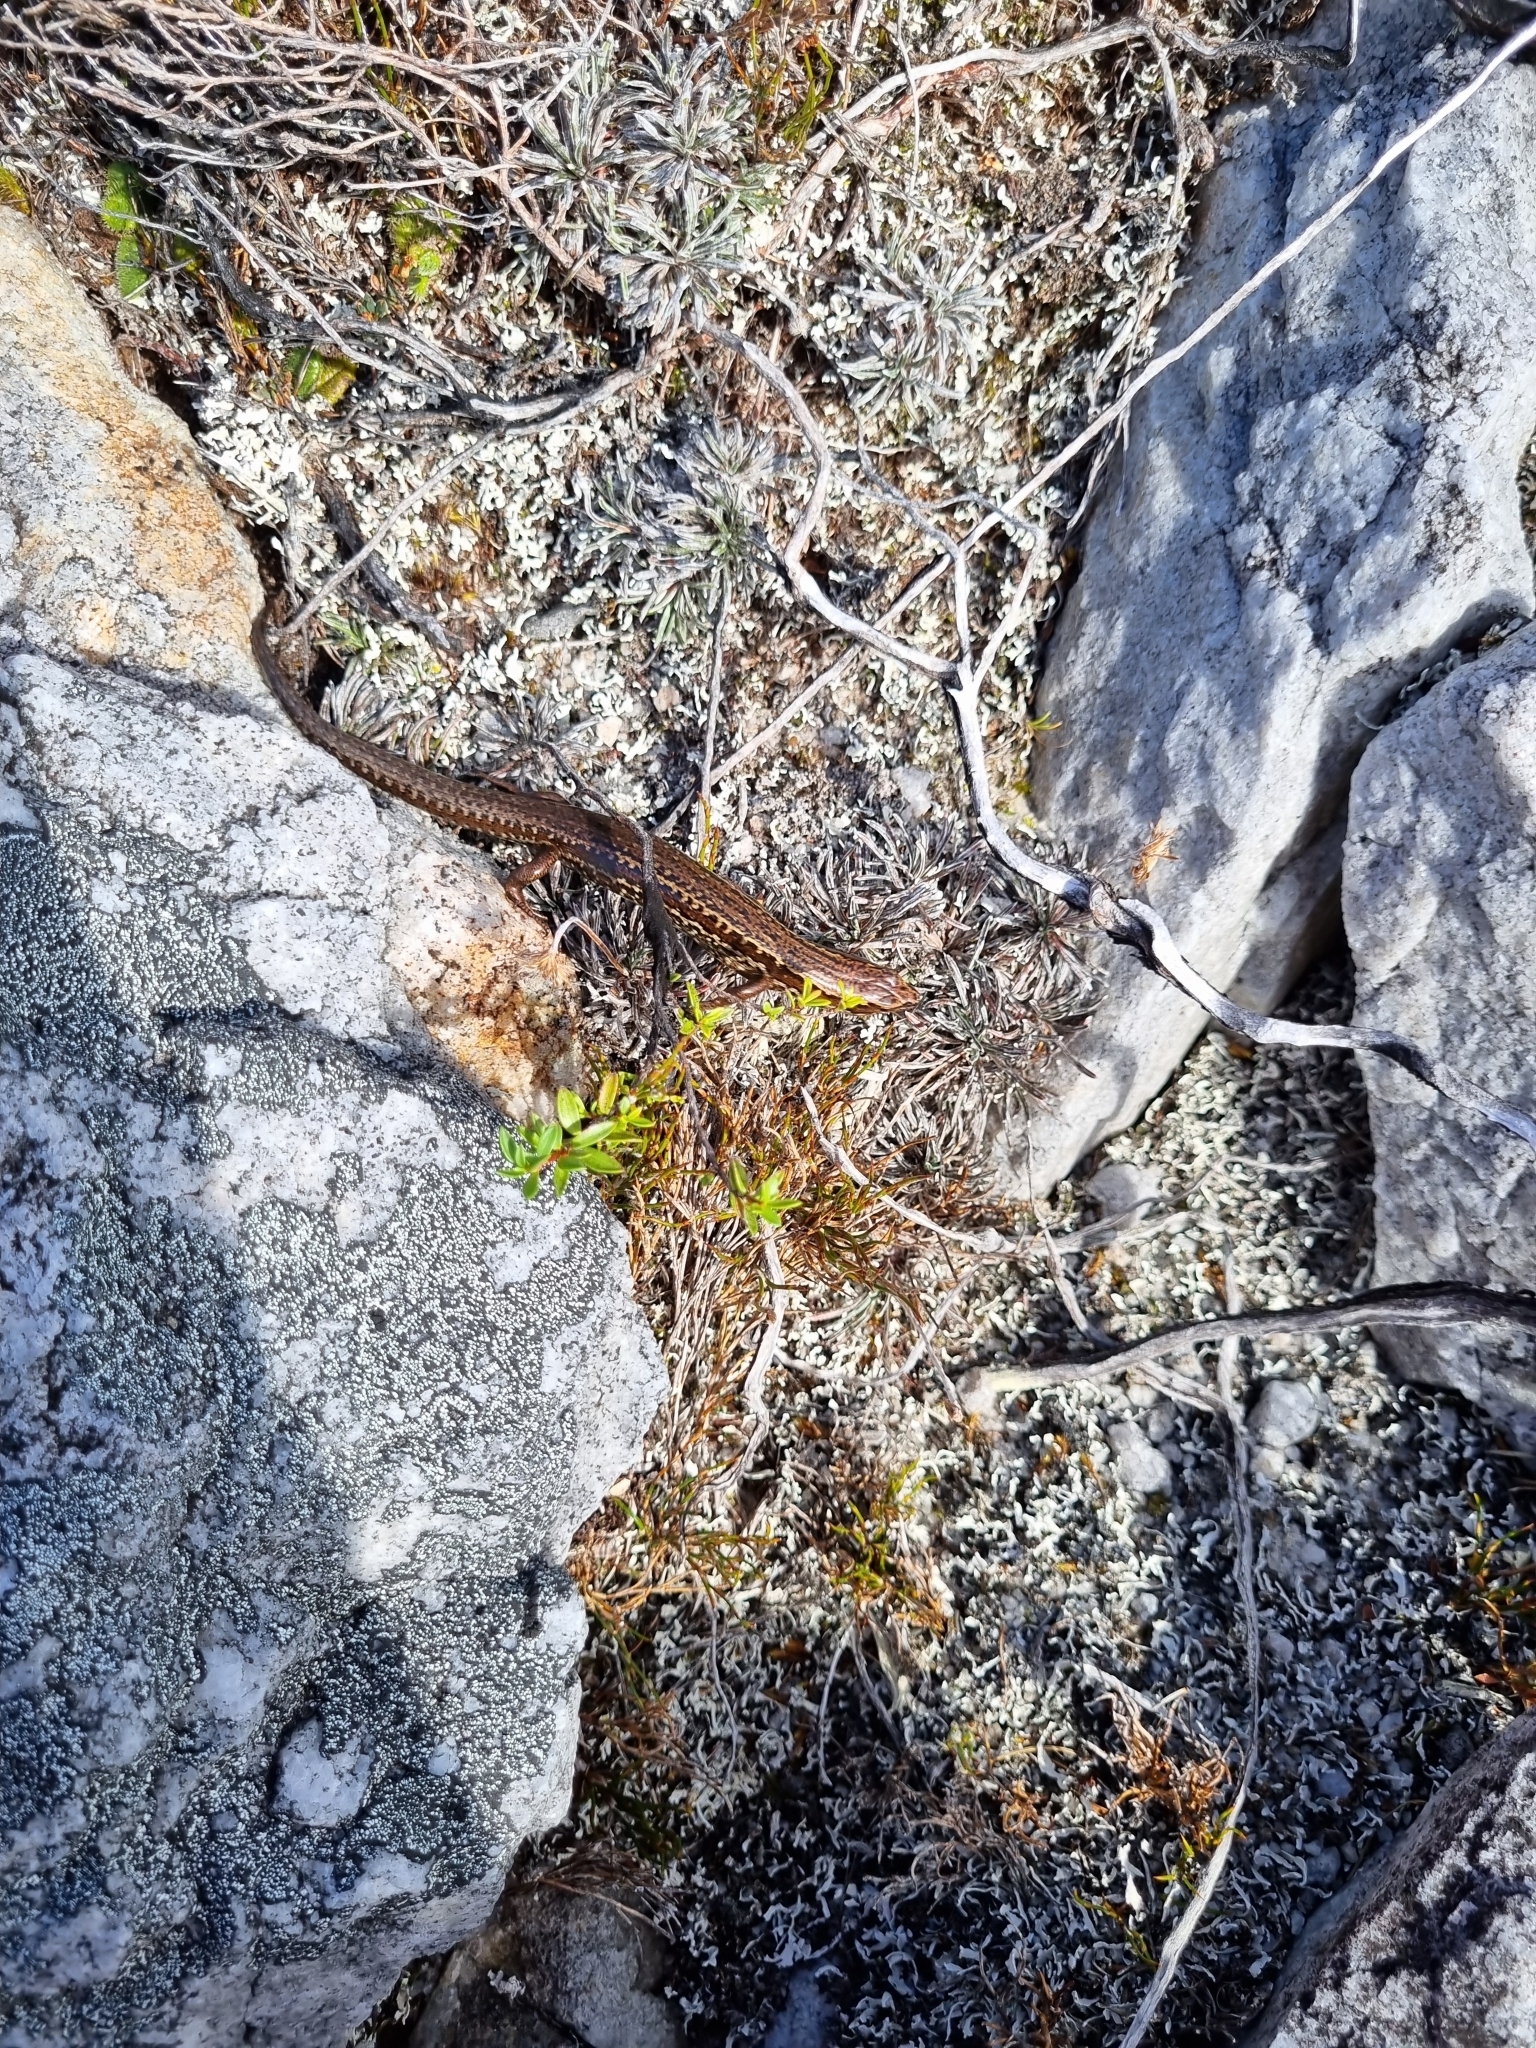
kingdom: Animalia
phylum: Chordata
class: Squamata
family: Scincidae
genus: Oligosoma
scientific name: Oligosoma newmani
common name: Newman’s speckled skink
